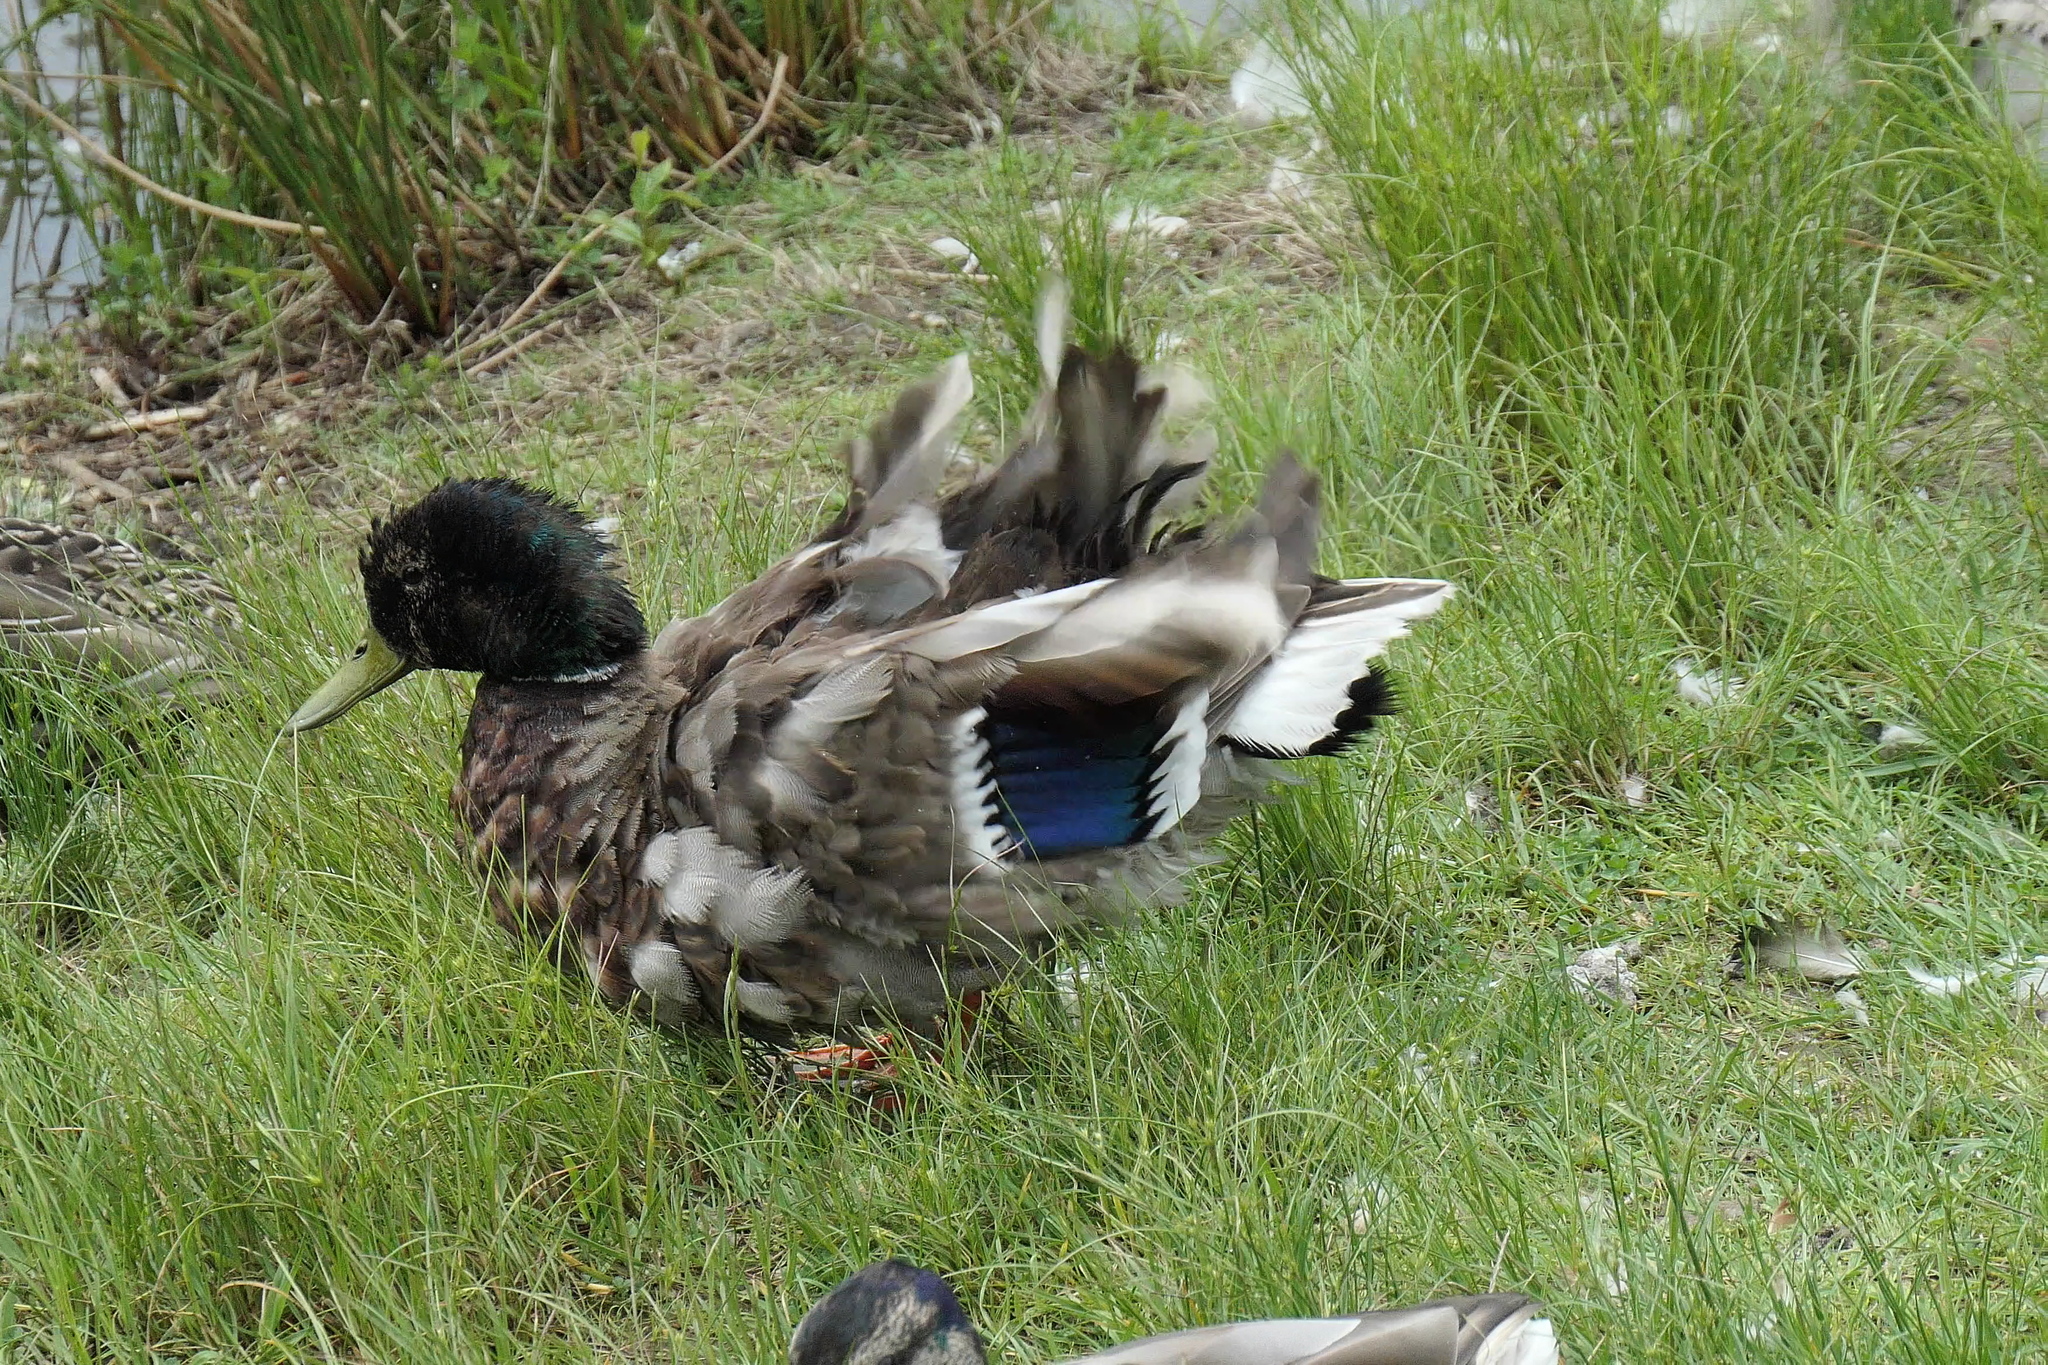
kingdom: Animalia
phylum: Chordata
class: Aves
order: Anseriformes
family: Anatidae
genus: Anas
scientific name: Anas platyrhynchos
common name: Mallard
